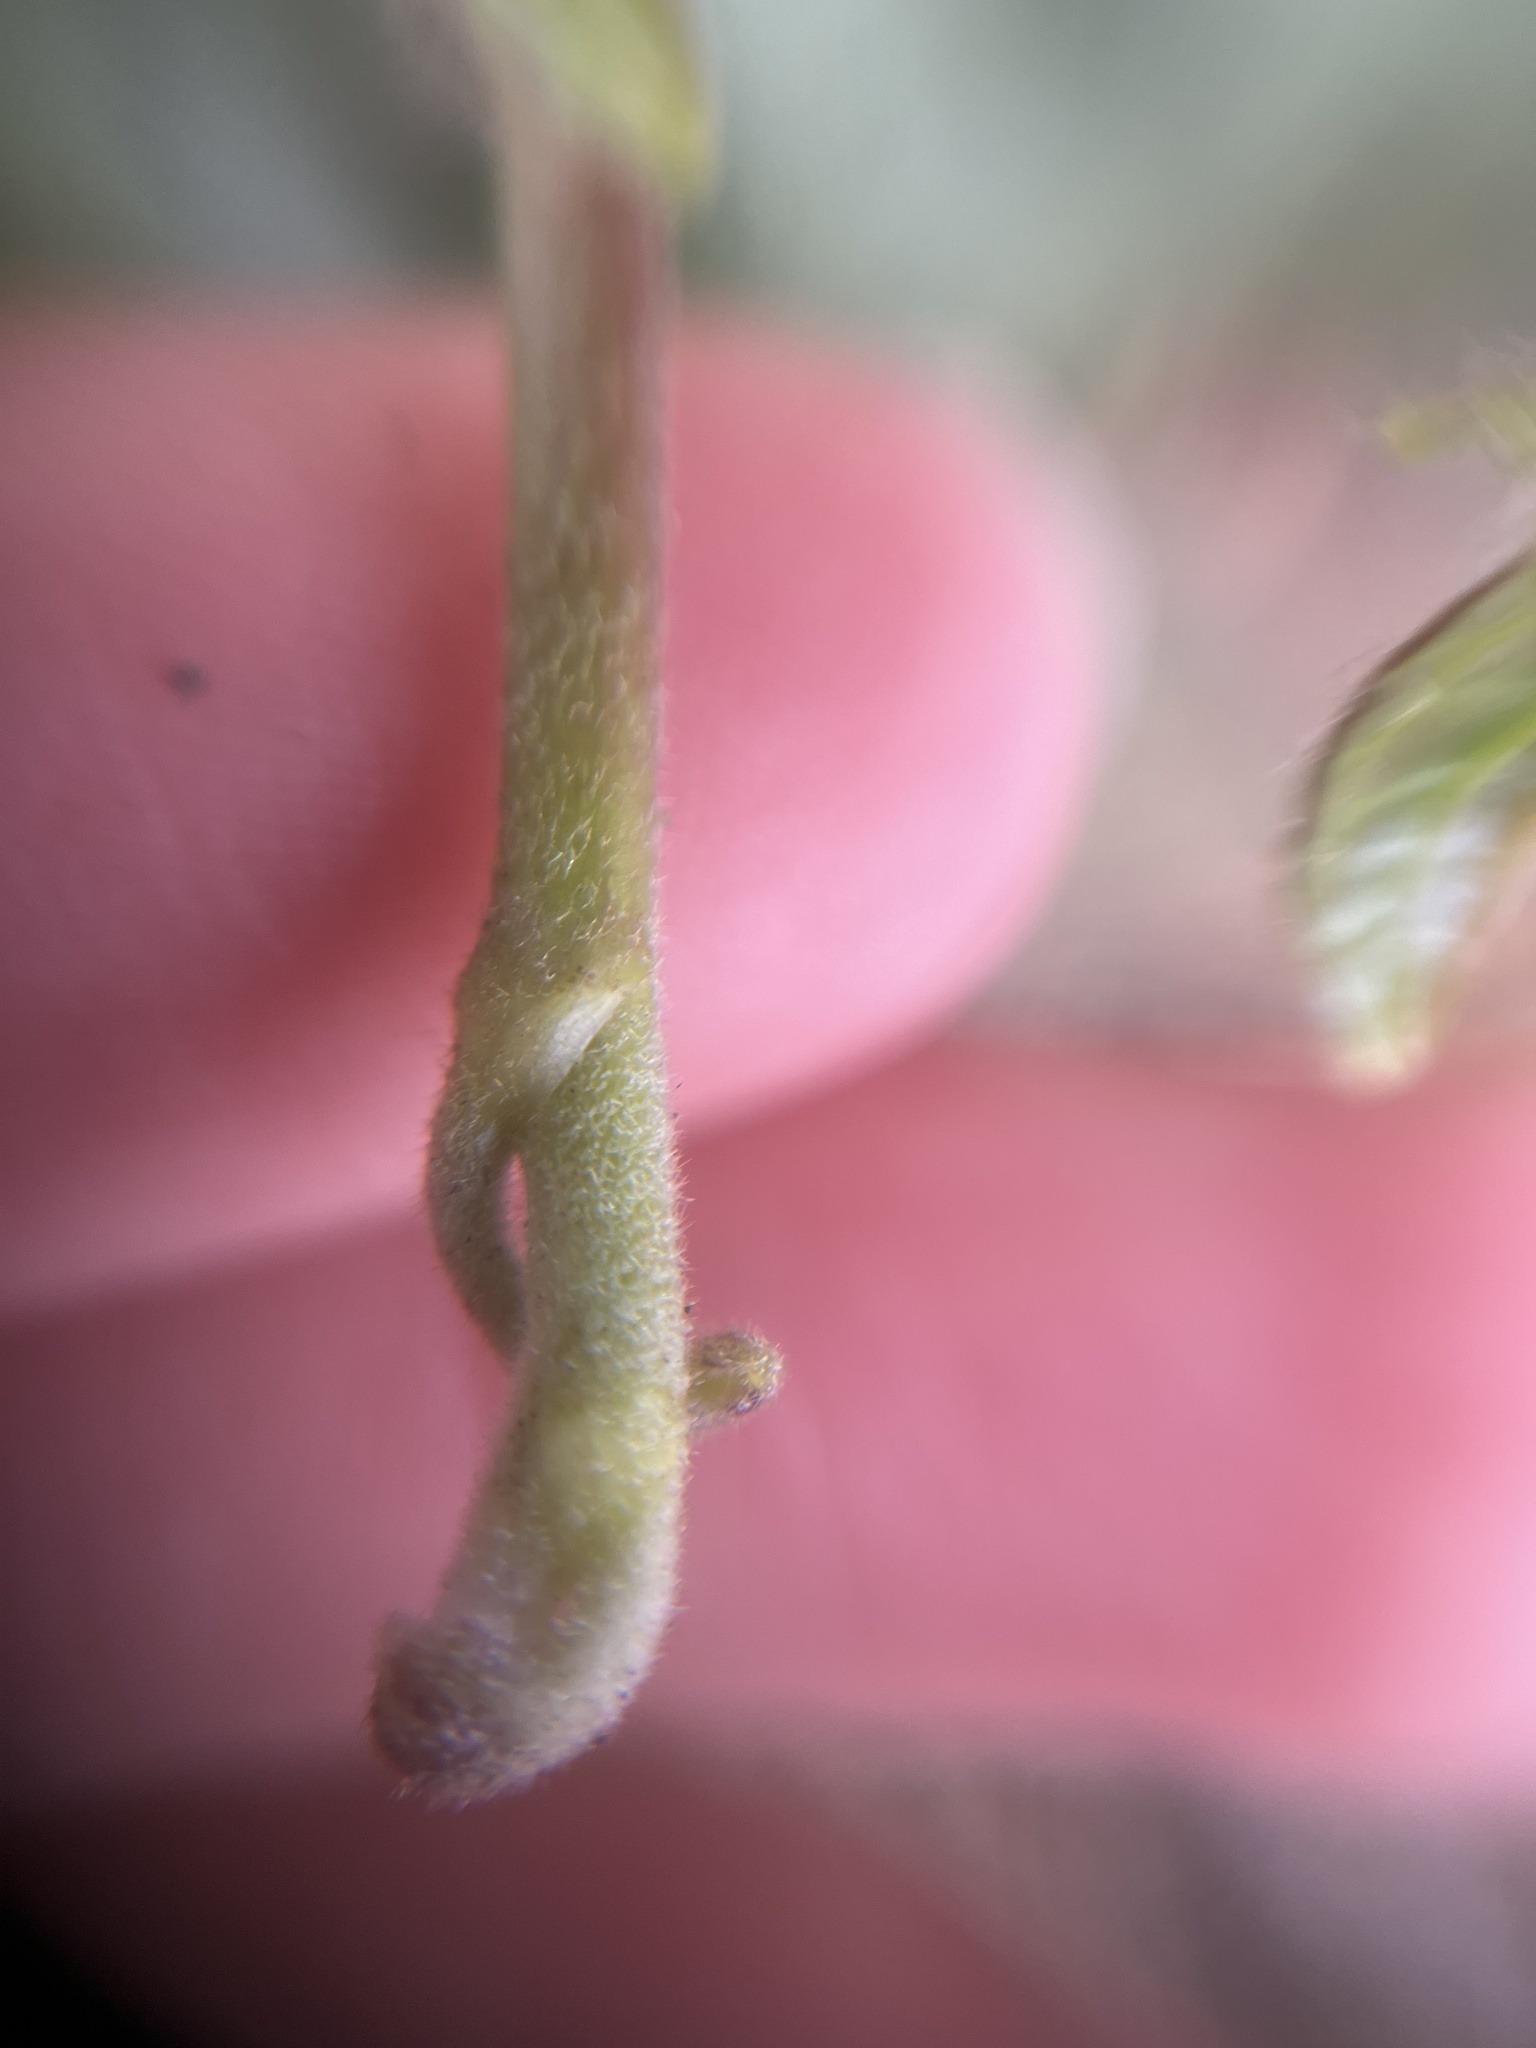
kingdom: Plantae
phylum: Tracheophyta
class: Magnoliopsida
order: Apiales
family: Araliaceae
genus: Hedera
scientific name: Hedera helix
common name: Ivy
